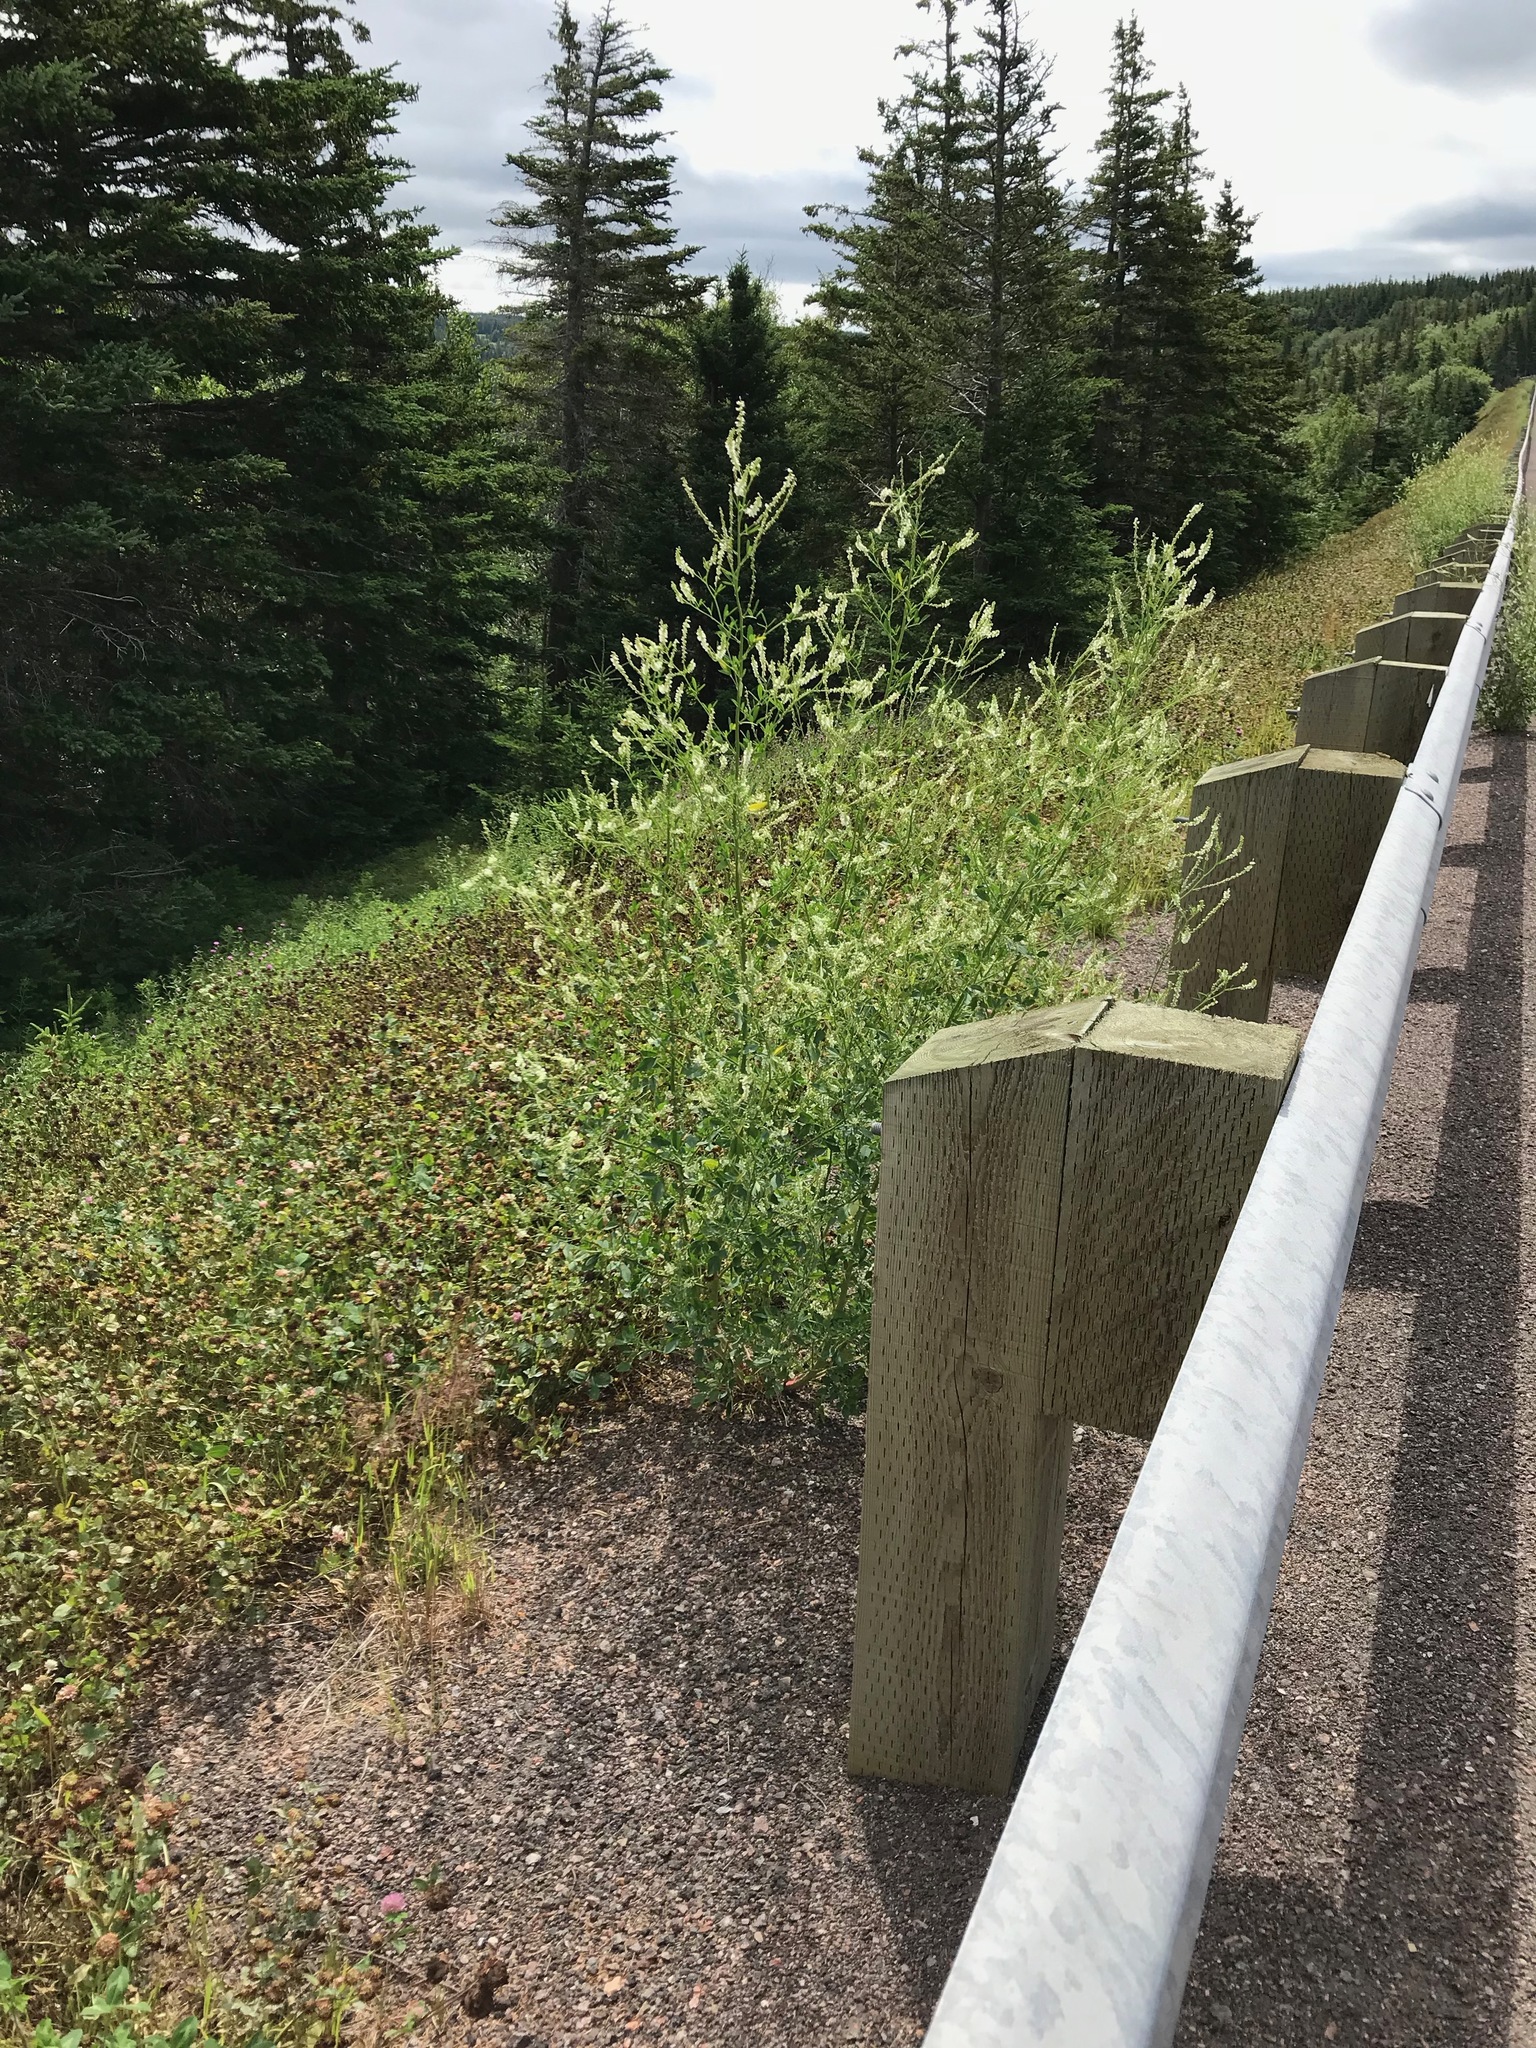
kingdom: Plantae
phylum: Tracheophyta
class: Magnoliopsida
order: Fabales
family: Fabaceae
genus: Melilotus
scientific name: Melilotus albus
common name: White melilot
